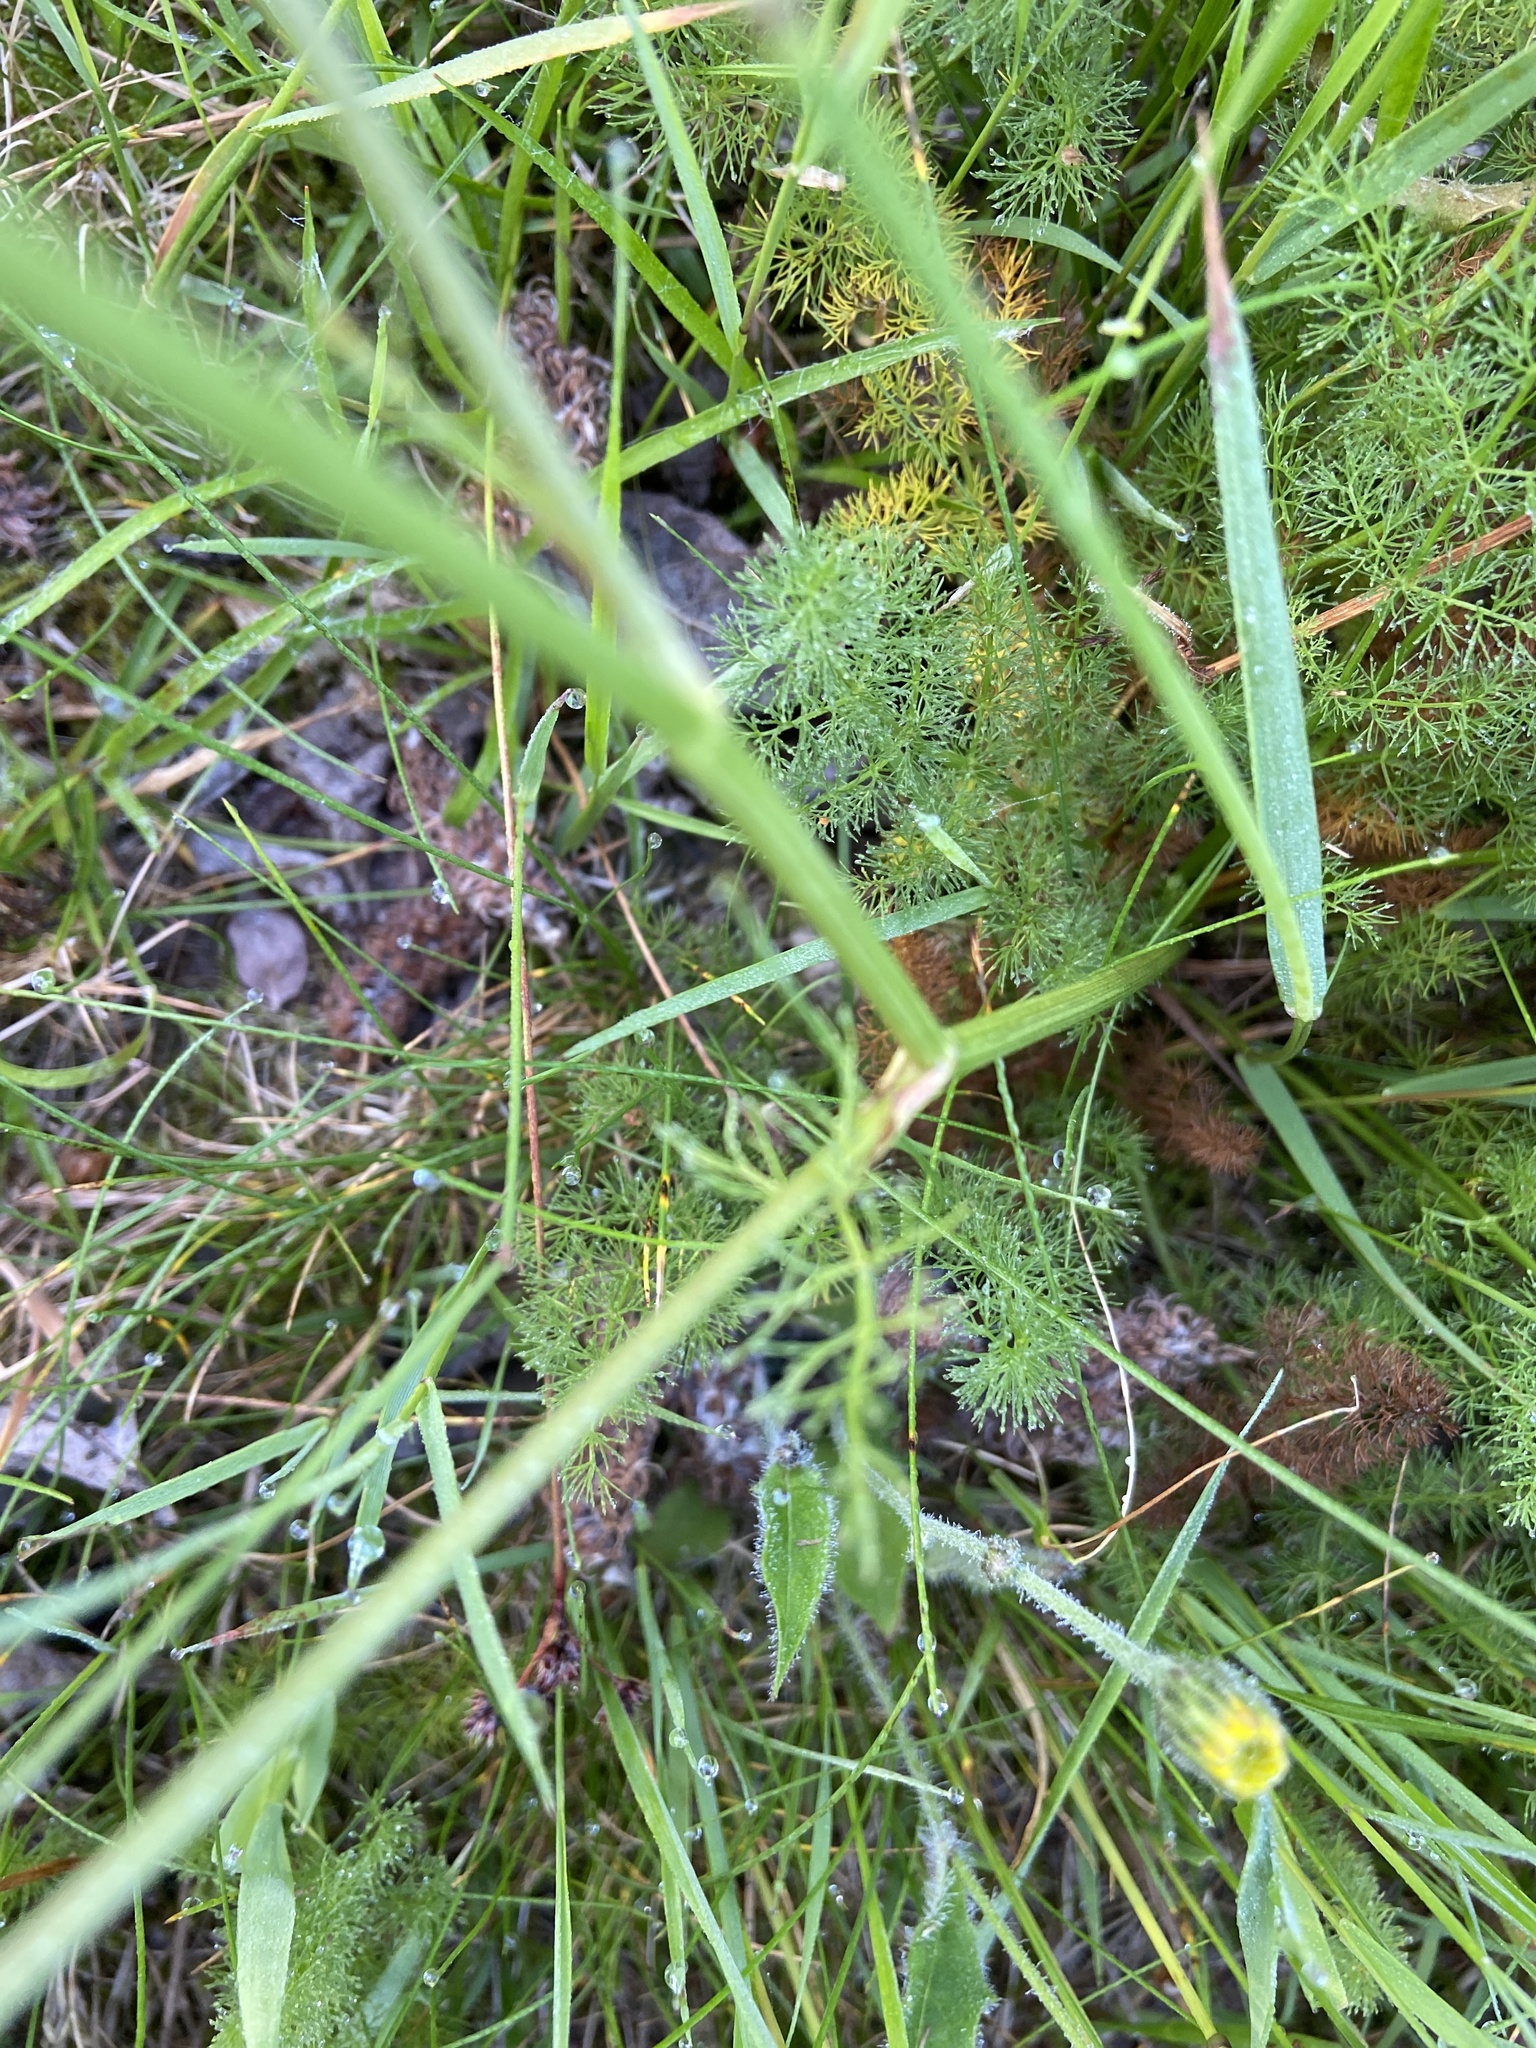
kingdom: Plantae
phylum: Tracheophyta
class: Magnoliopsida
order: Apiales
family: Apiaceae
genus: Meum
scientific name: Meum athamanticum
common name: Spignel
